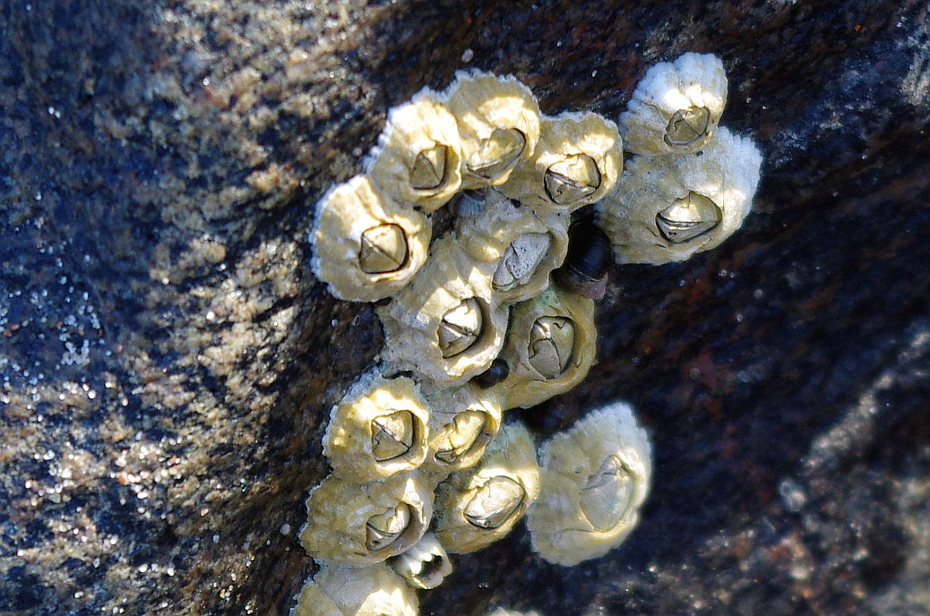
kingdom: Animalia
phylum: Arthropoda
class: Maxillopoda
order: Sessilia
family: Archaeobalanidae
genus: Semibalanus
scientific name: Semibalanus balanoides
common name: Acorn barnacle
